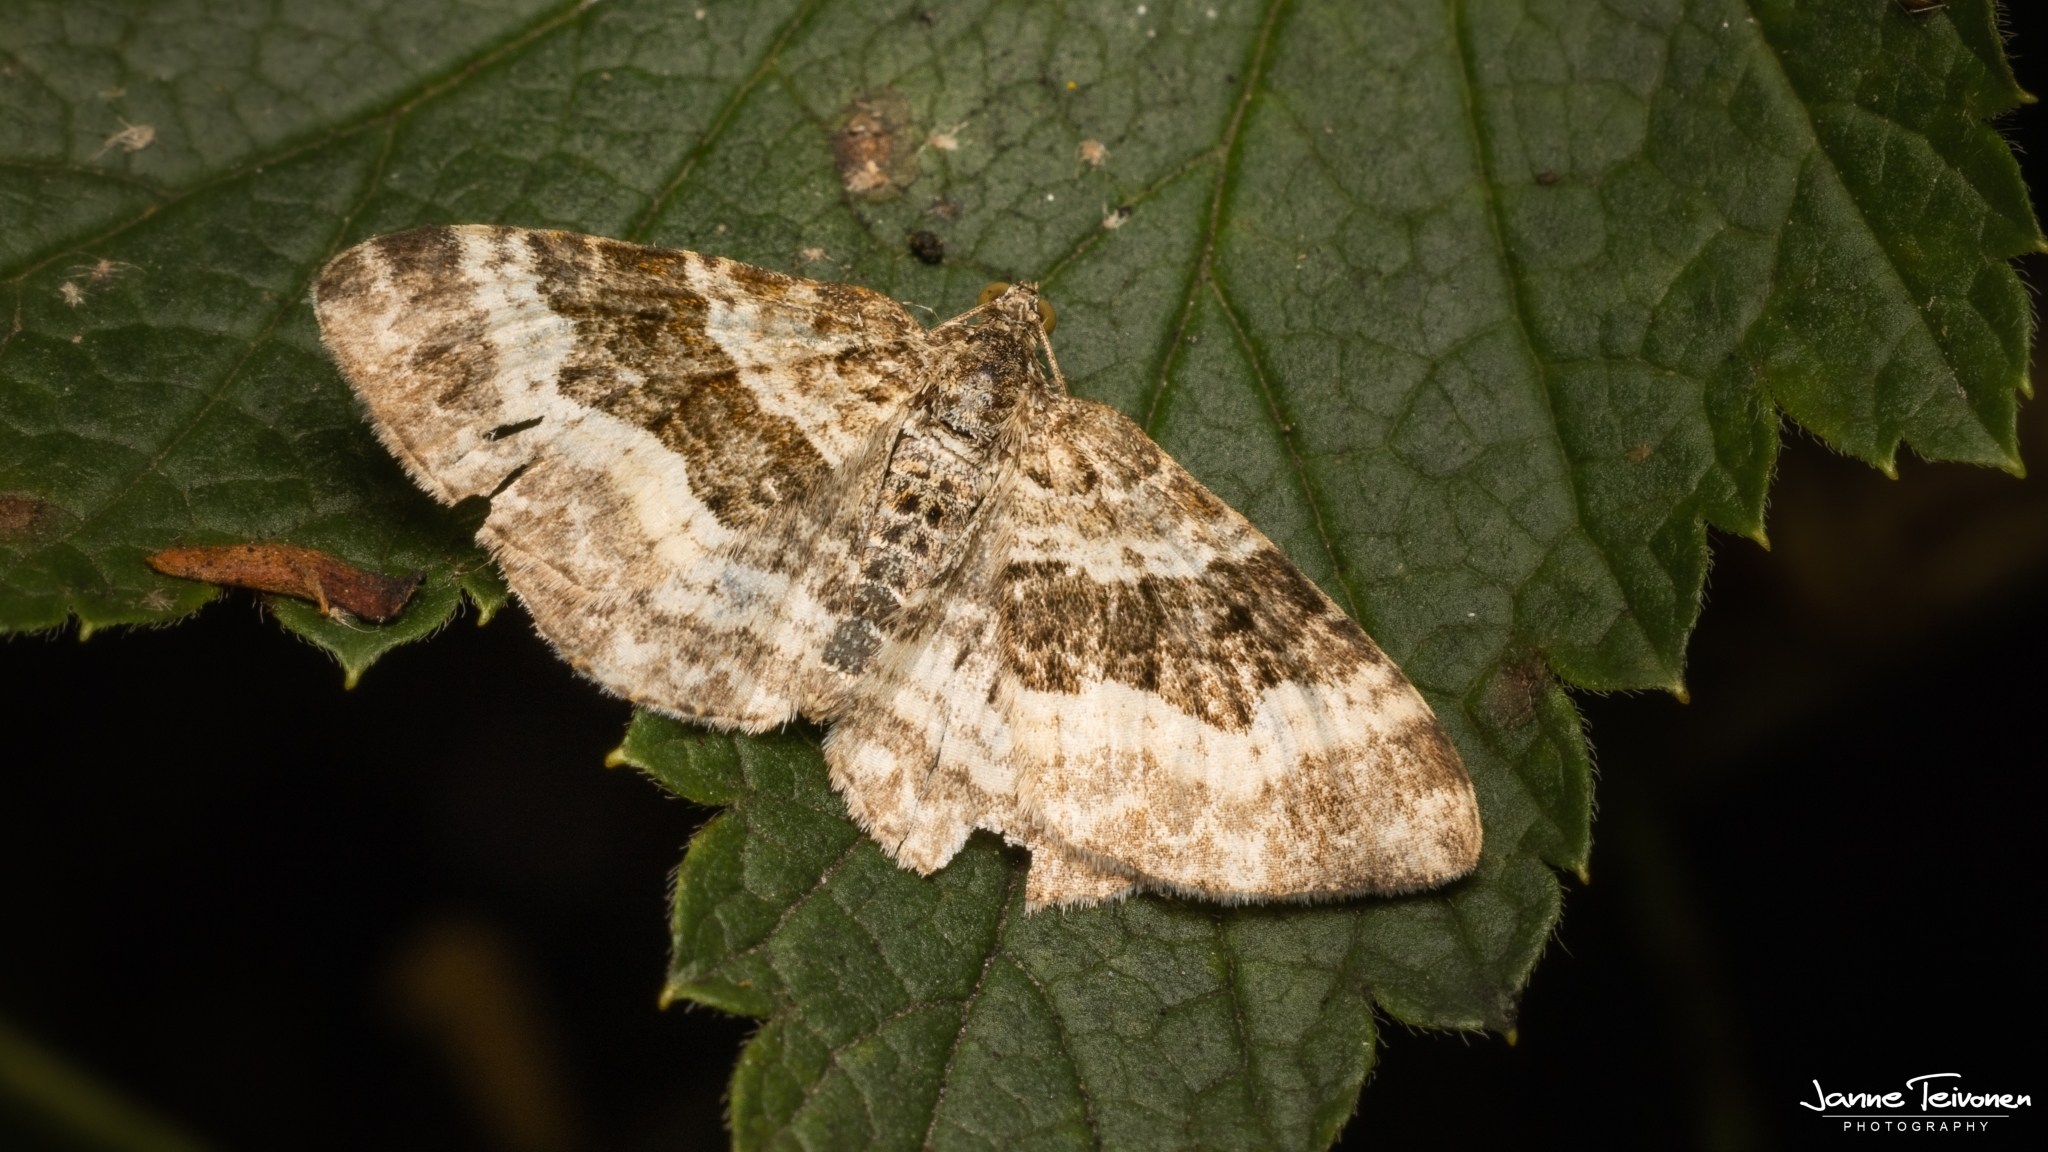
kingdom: Animalia
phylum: Arthropoda
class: Insecta
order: Lepidoptera
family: Geometridae
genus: Epirrhoe
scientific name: Epirrhoe alternata
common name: Common carpet
